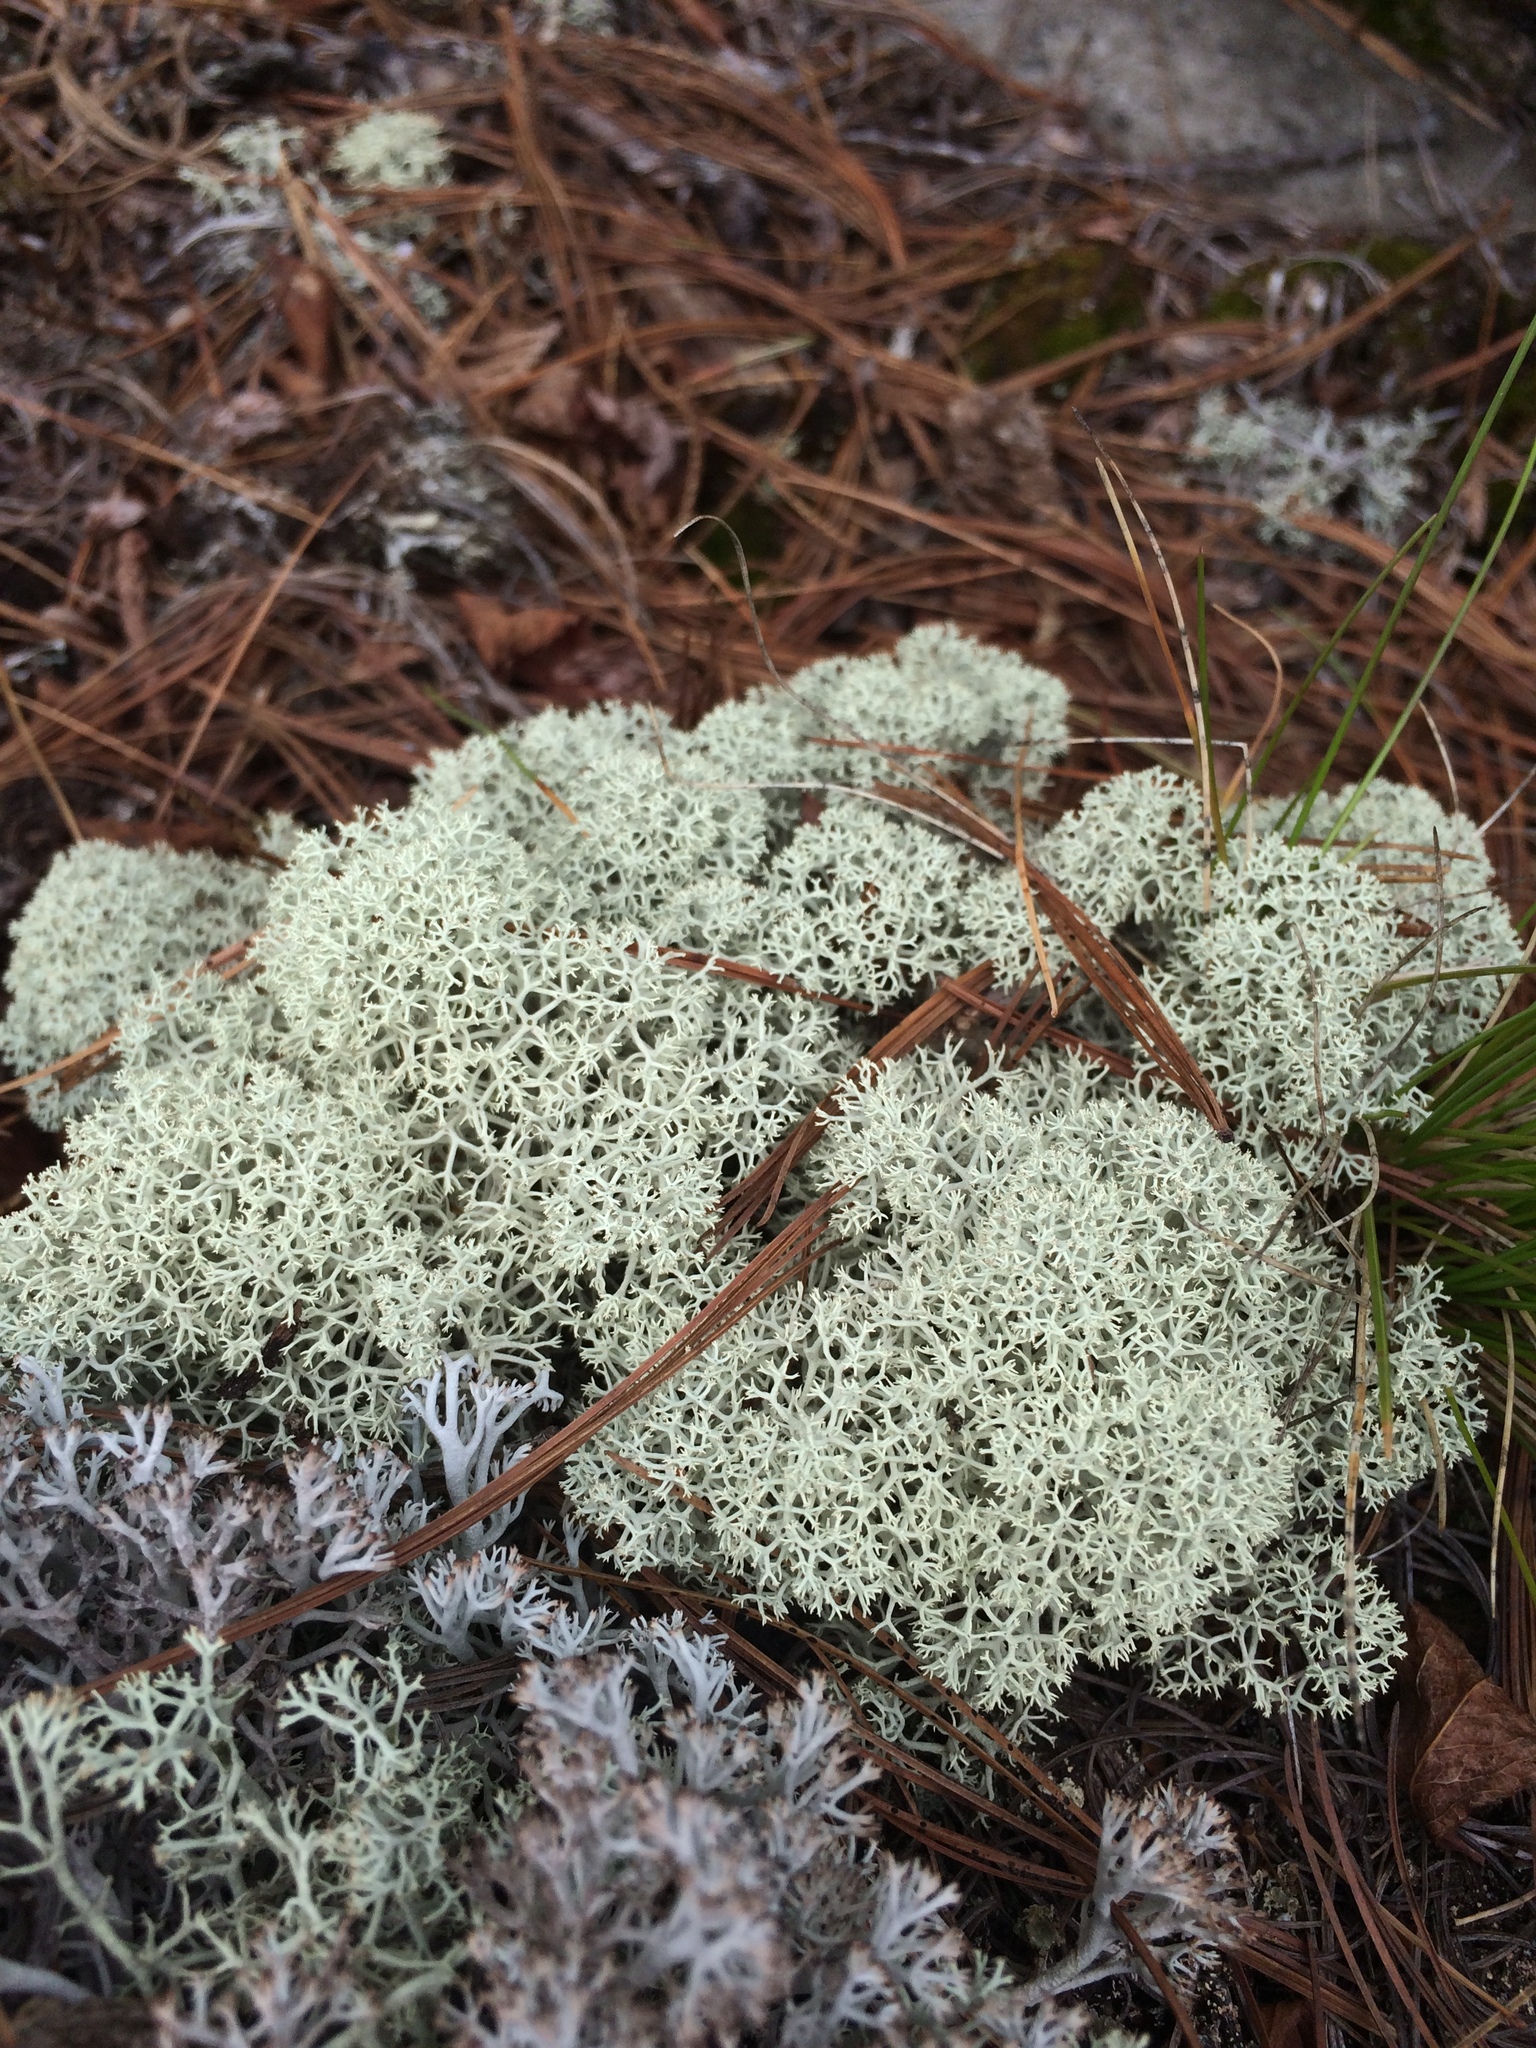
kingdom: Fungi
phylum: Ascomycota
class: Lecanoromycetes
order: Lecanorales
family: Cladoniaceae
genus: Cladonia
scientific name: Cladonia stellaris
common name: Star-tipped reindeer lichen
